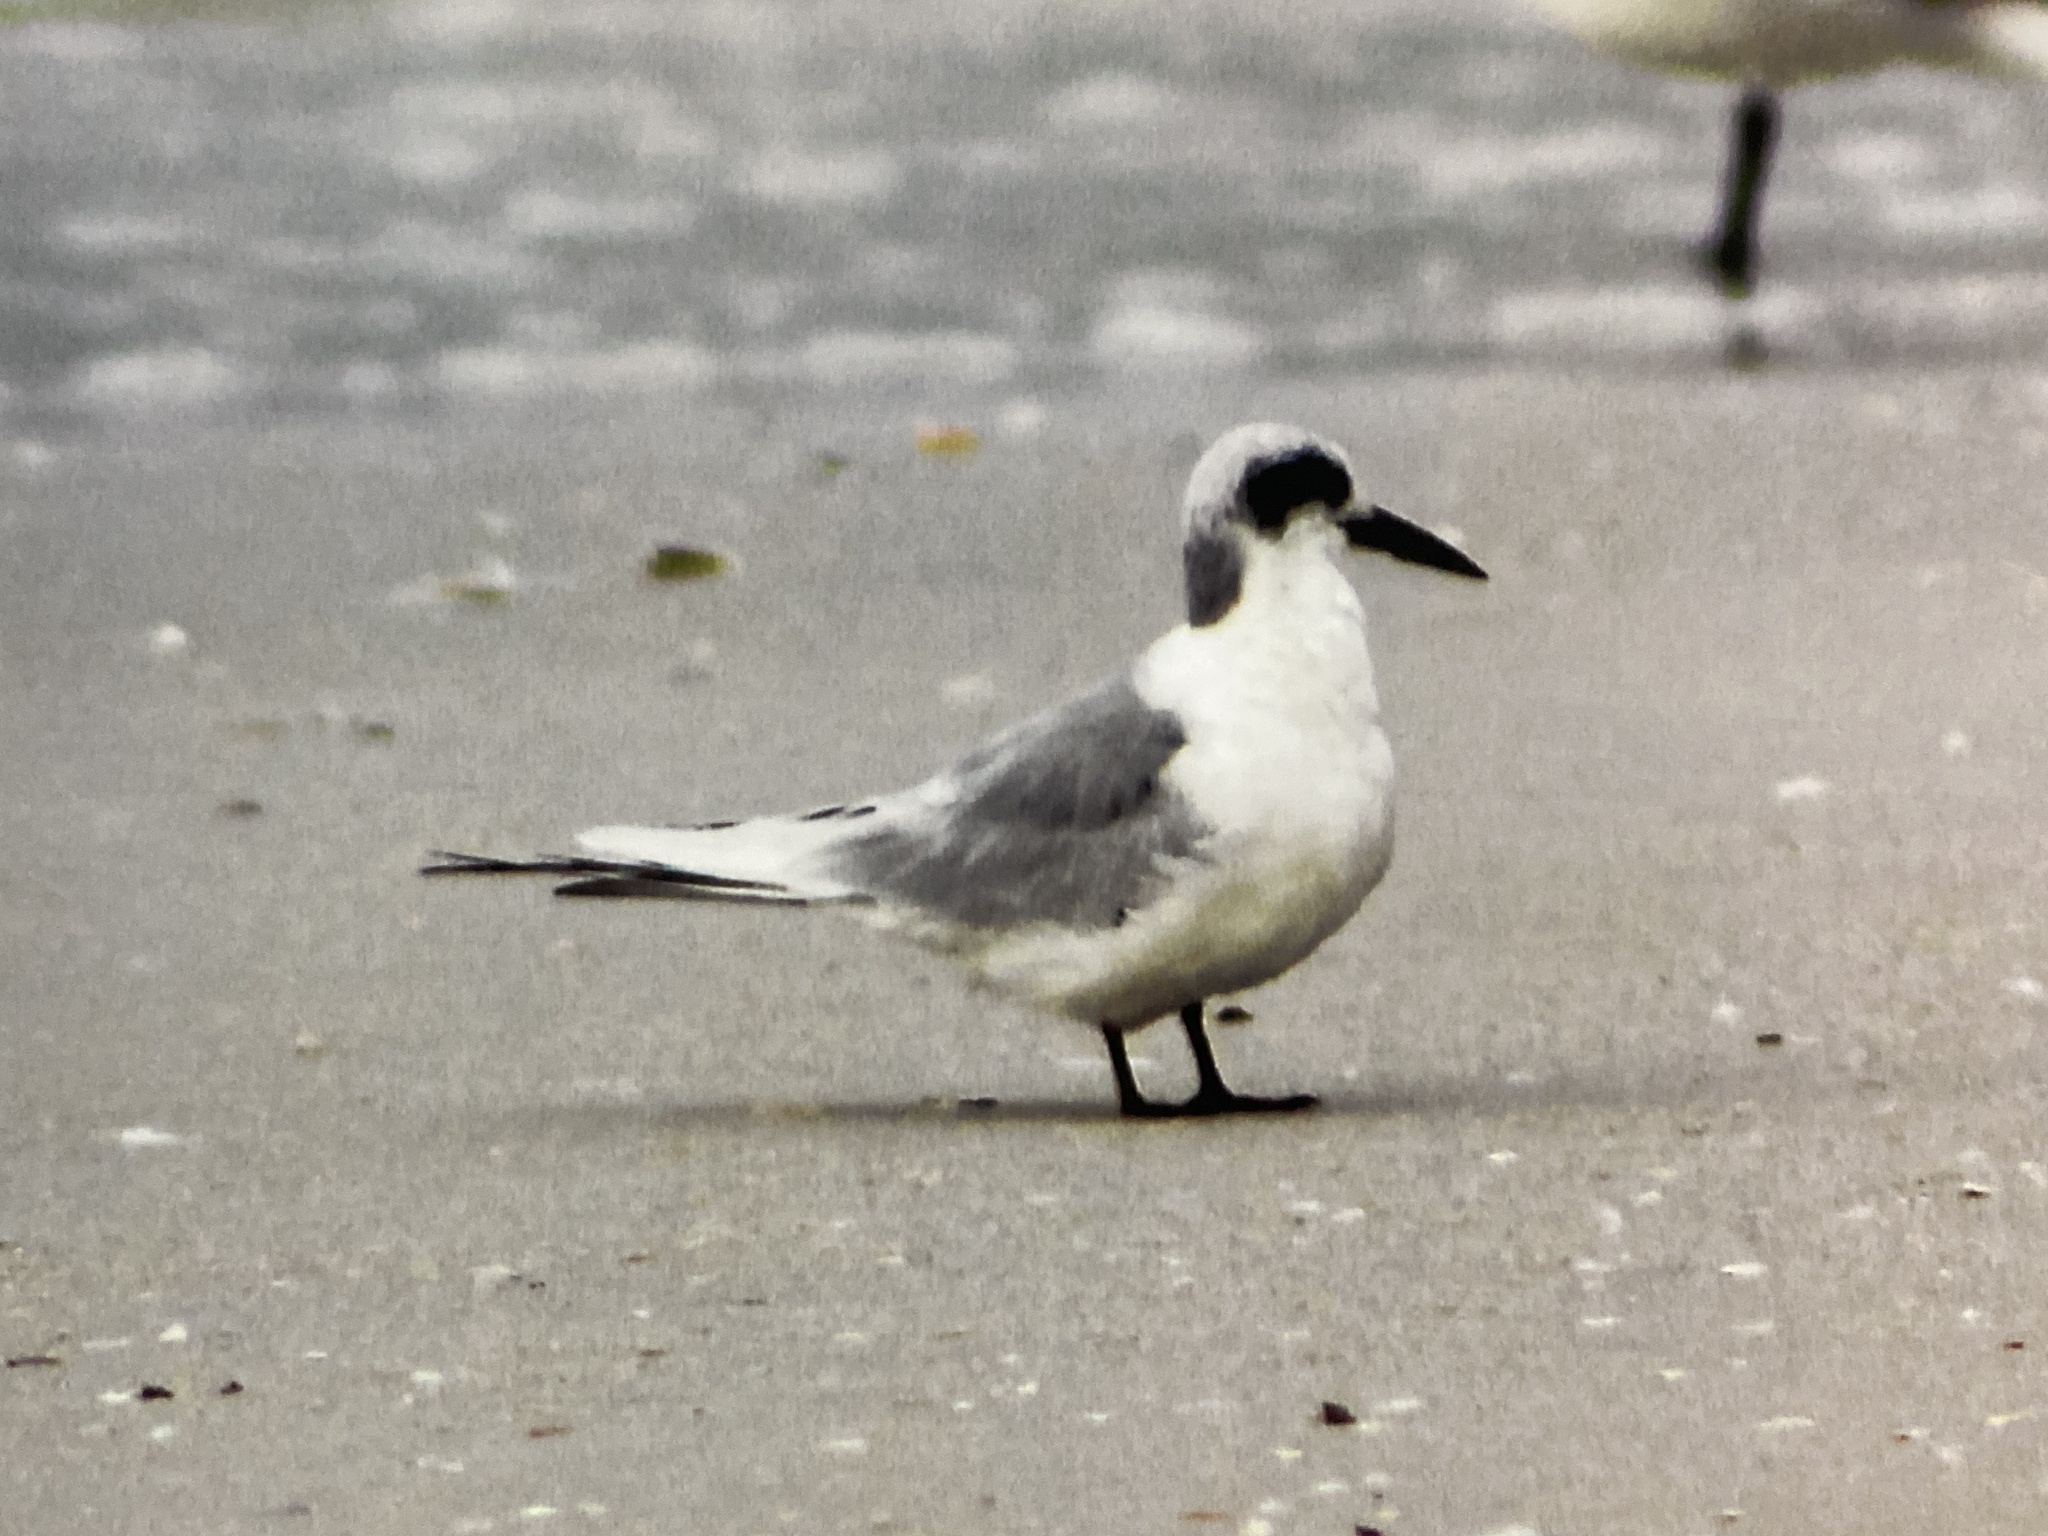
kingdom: Animalia
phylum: Chordata
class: Aves
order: Charadriiformes
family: Laridae
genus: Sterna
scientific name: Sterna forsteri
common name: Forster's tern
